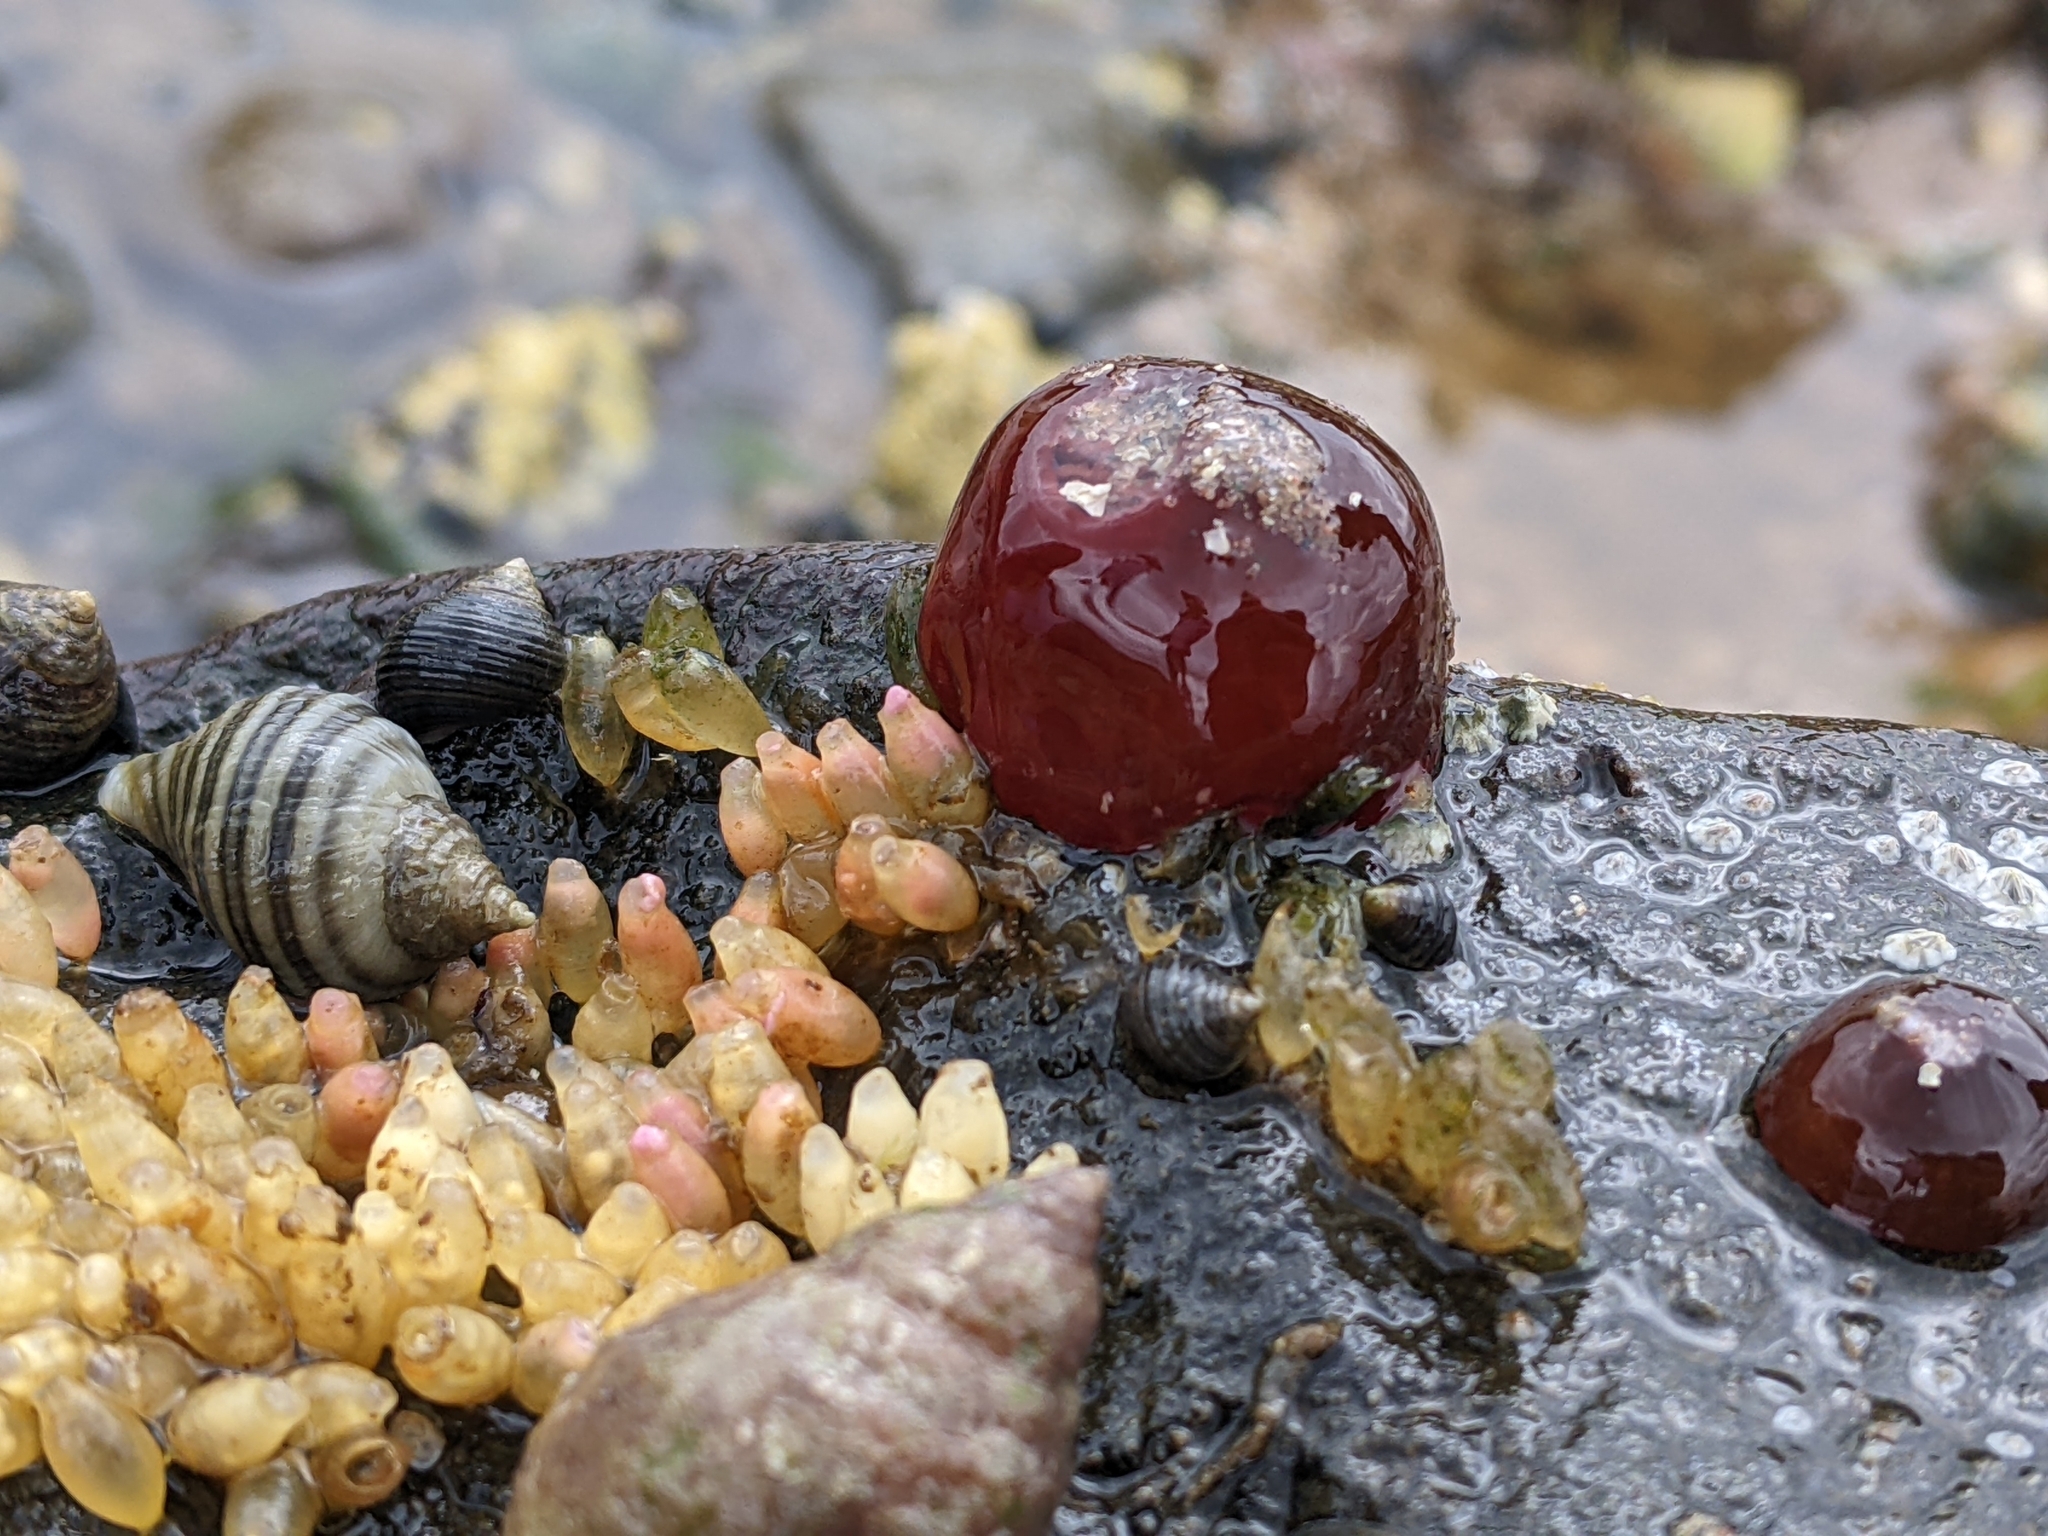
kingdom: Animalia
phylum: Cnidaria
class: Anthozoa
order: Actiniaria
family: Actiniidae
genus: Actinia
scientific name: Actinia equina
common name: Beadlet anemone
